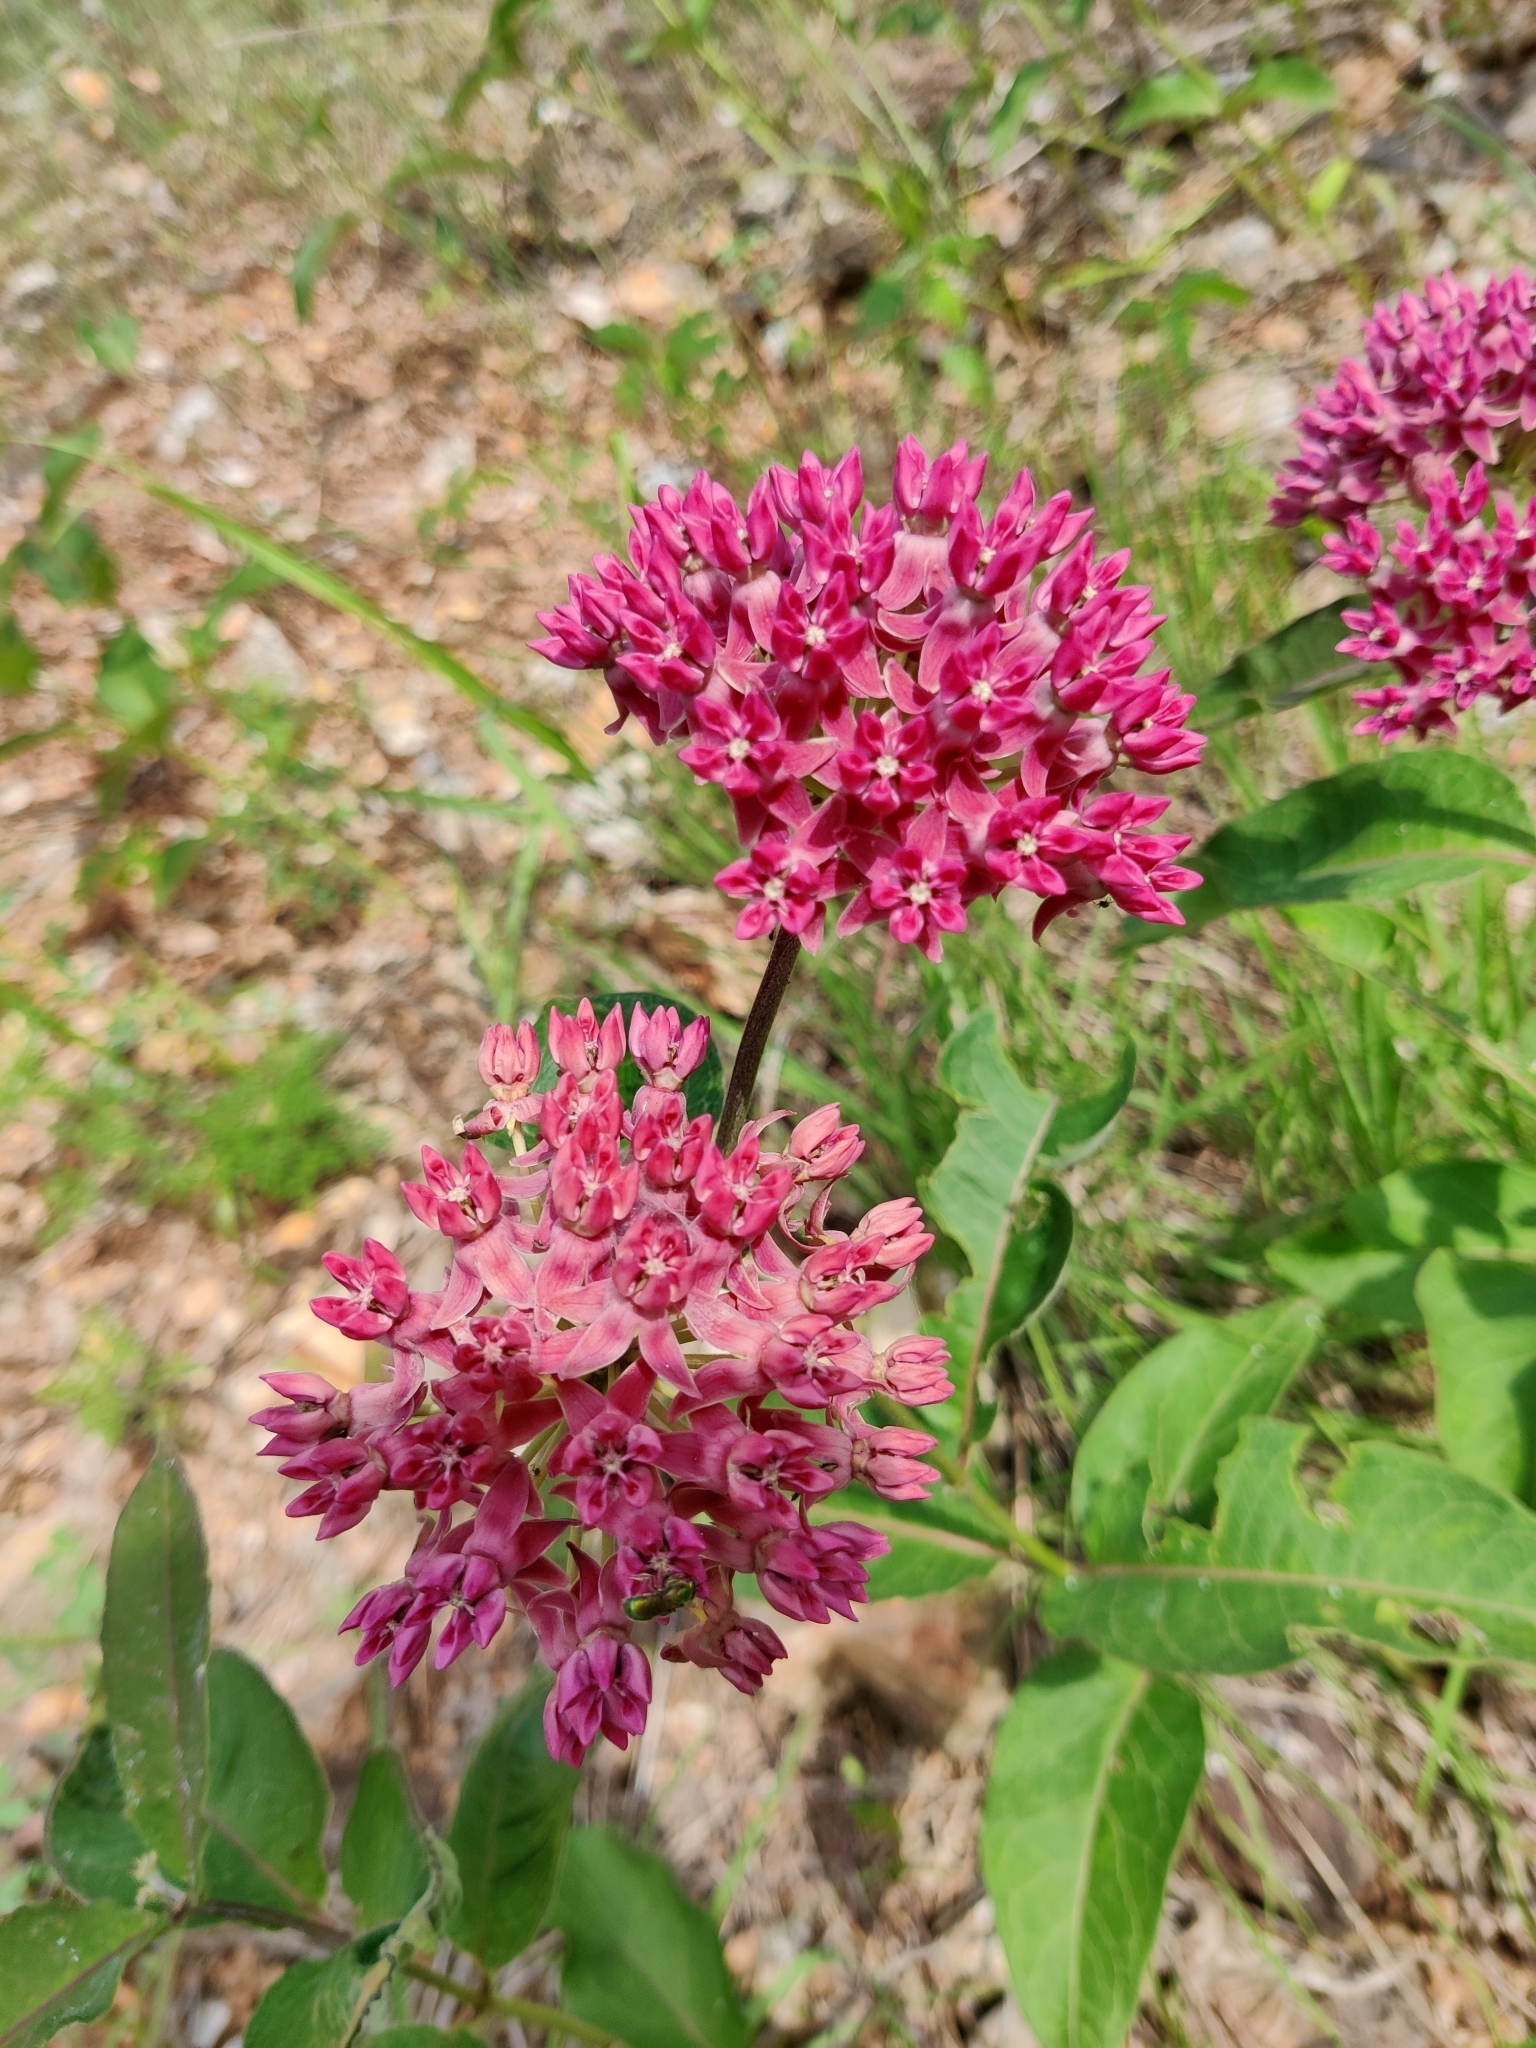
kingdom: Plantae
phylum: Tracheophyta
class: Magnoliopsida
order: Gentianales
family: Apocynaceae
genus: Asclepias
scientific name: Asclepias purpurascens
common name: Purple milkweed
